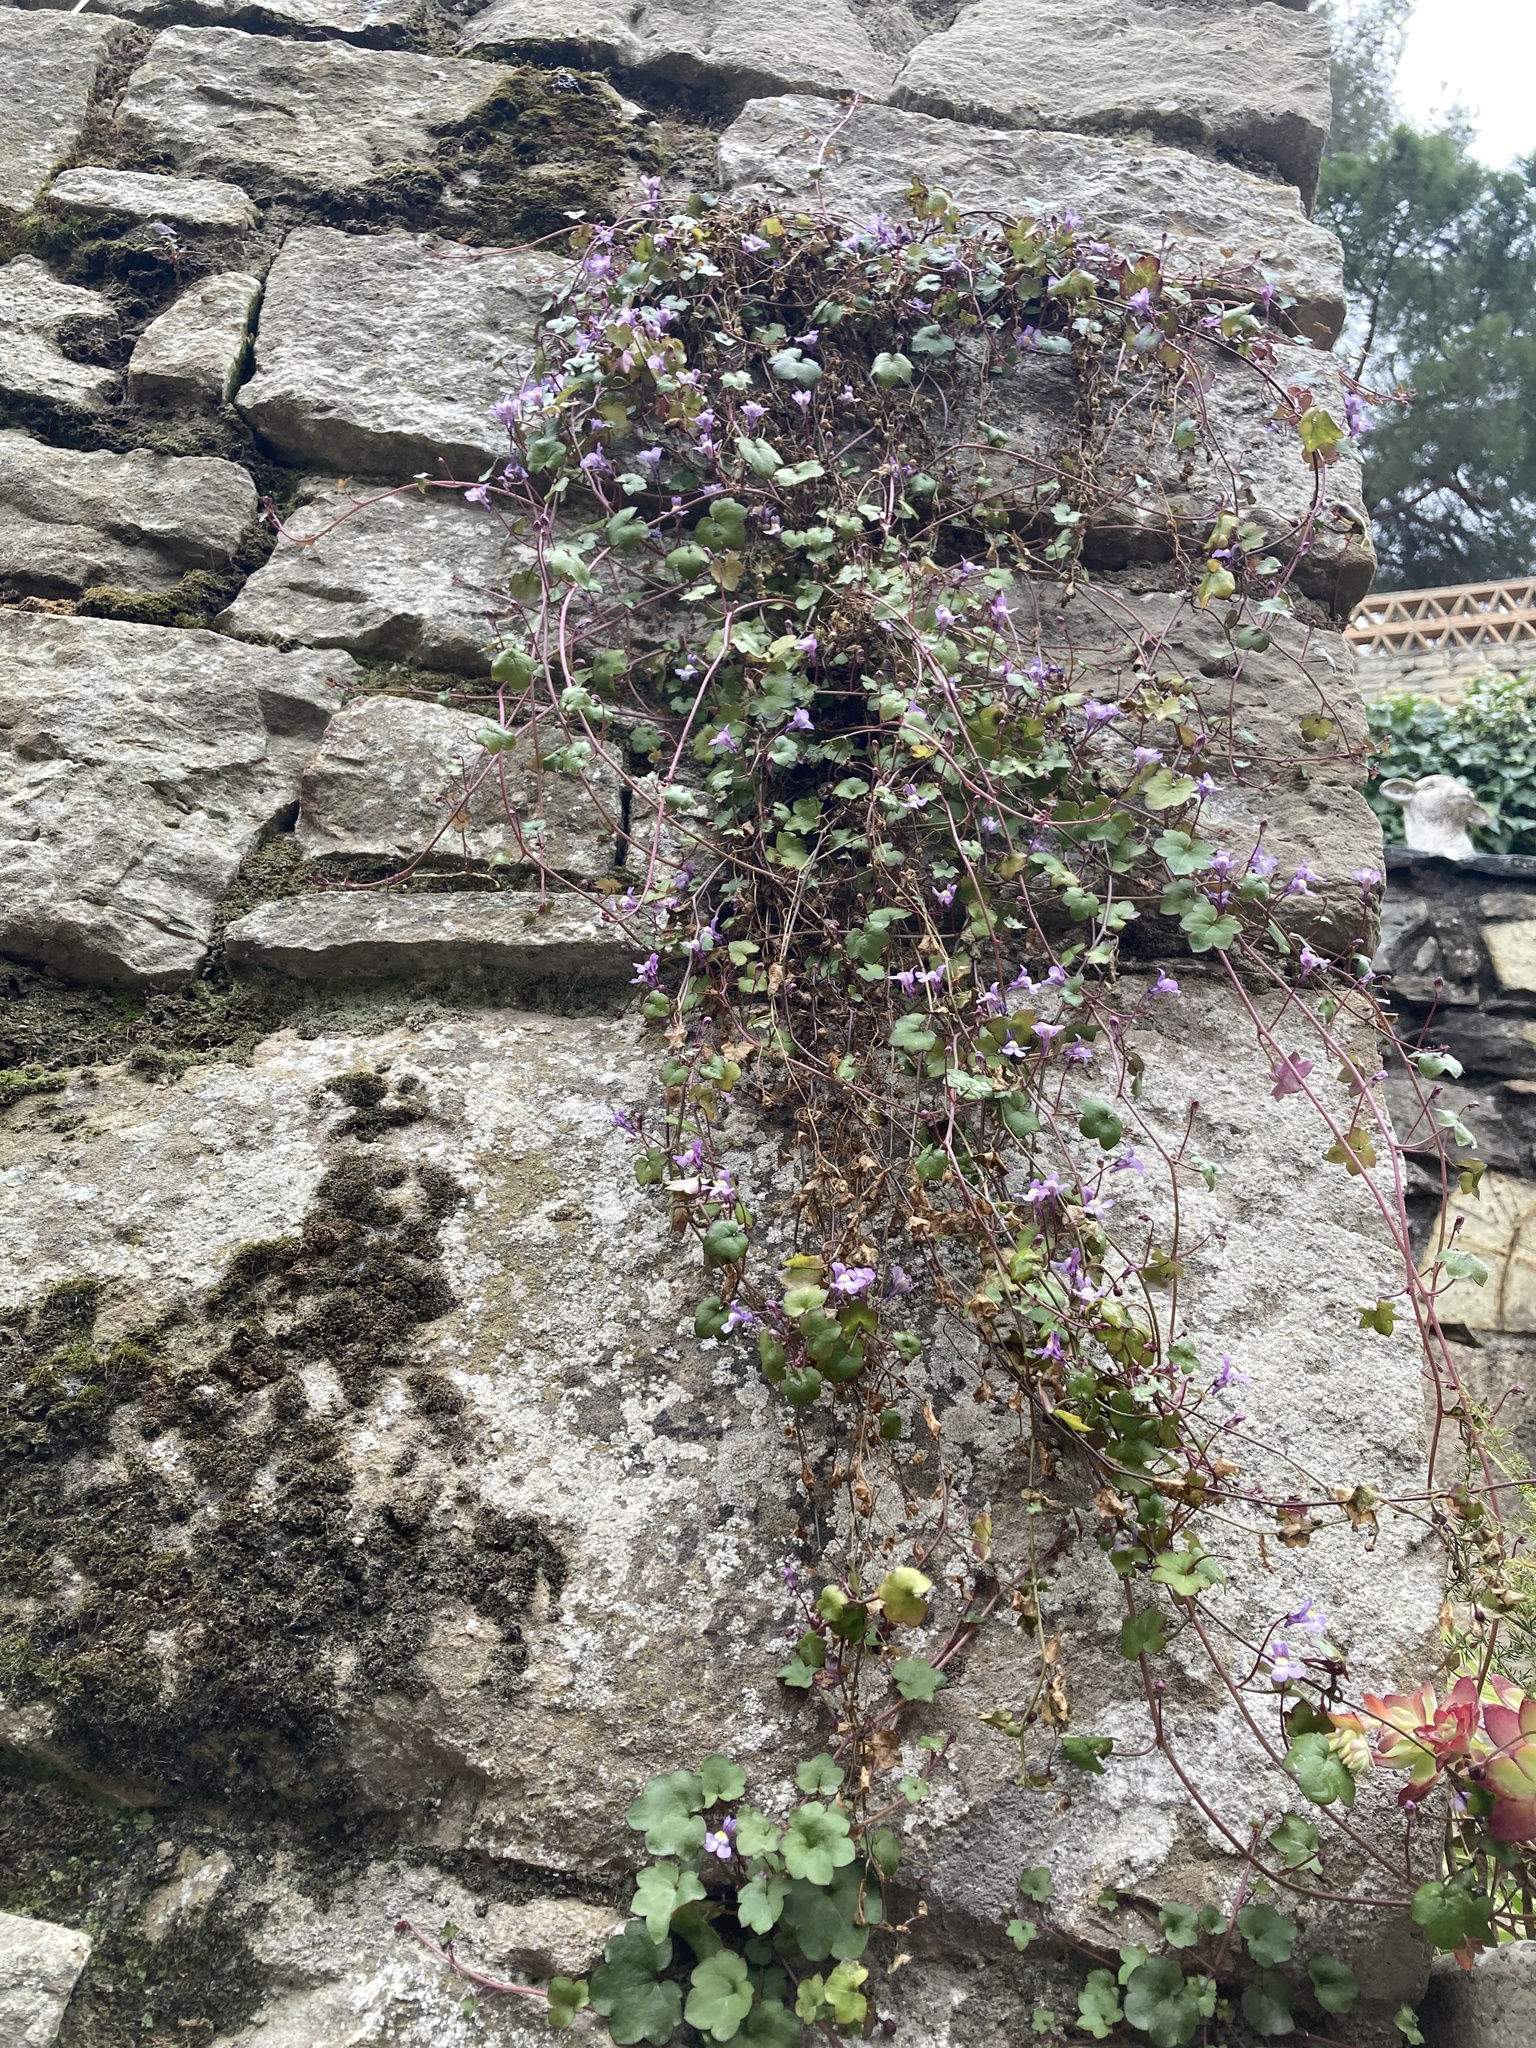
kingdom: Plantae
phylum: Tracheophyta
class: Magnoliopsida
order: Lamiales
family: Plantaginaceae
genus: Cymbalaria
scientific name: Cymbalaria muralis
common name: Ivy-leaved toadflax
